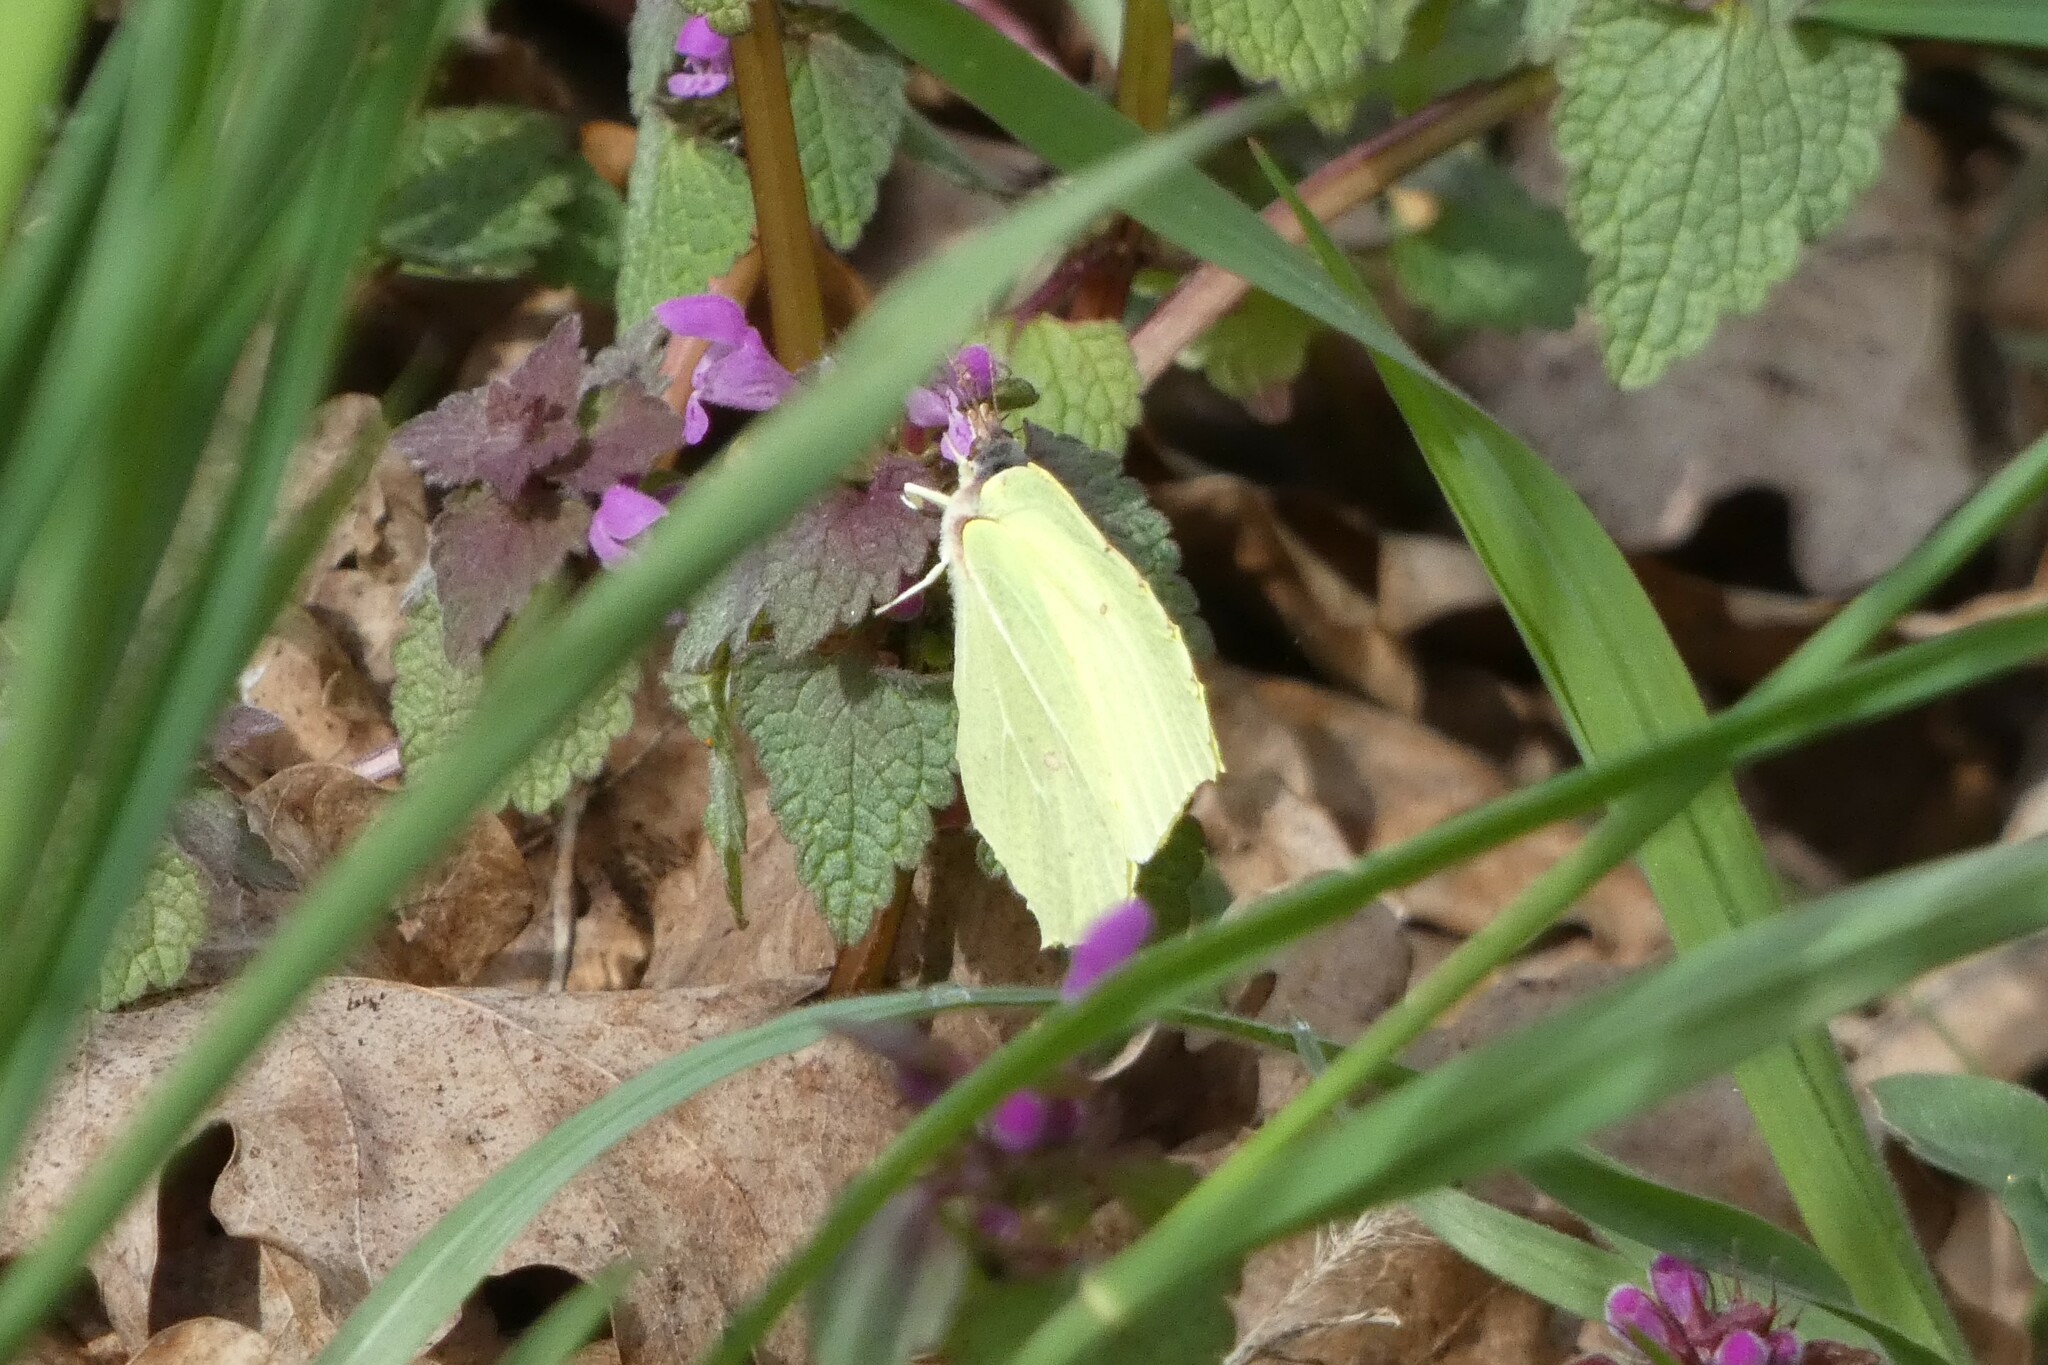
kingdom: Animalia
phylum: Arthropoda
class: Insecta
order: Lepidoptera
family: Pieridae
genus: Gonepteryx
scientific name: Gonepteryx rhamni
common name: Brimstone
